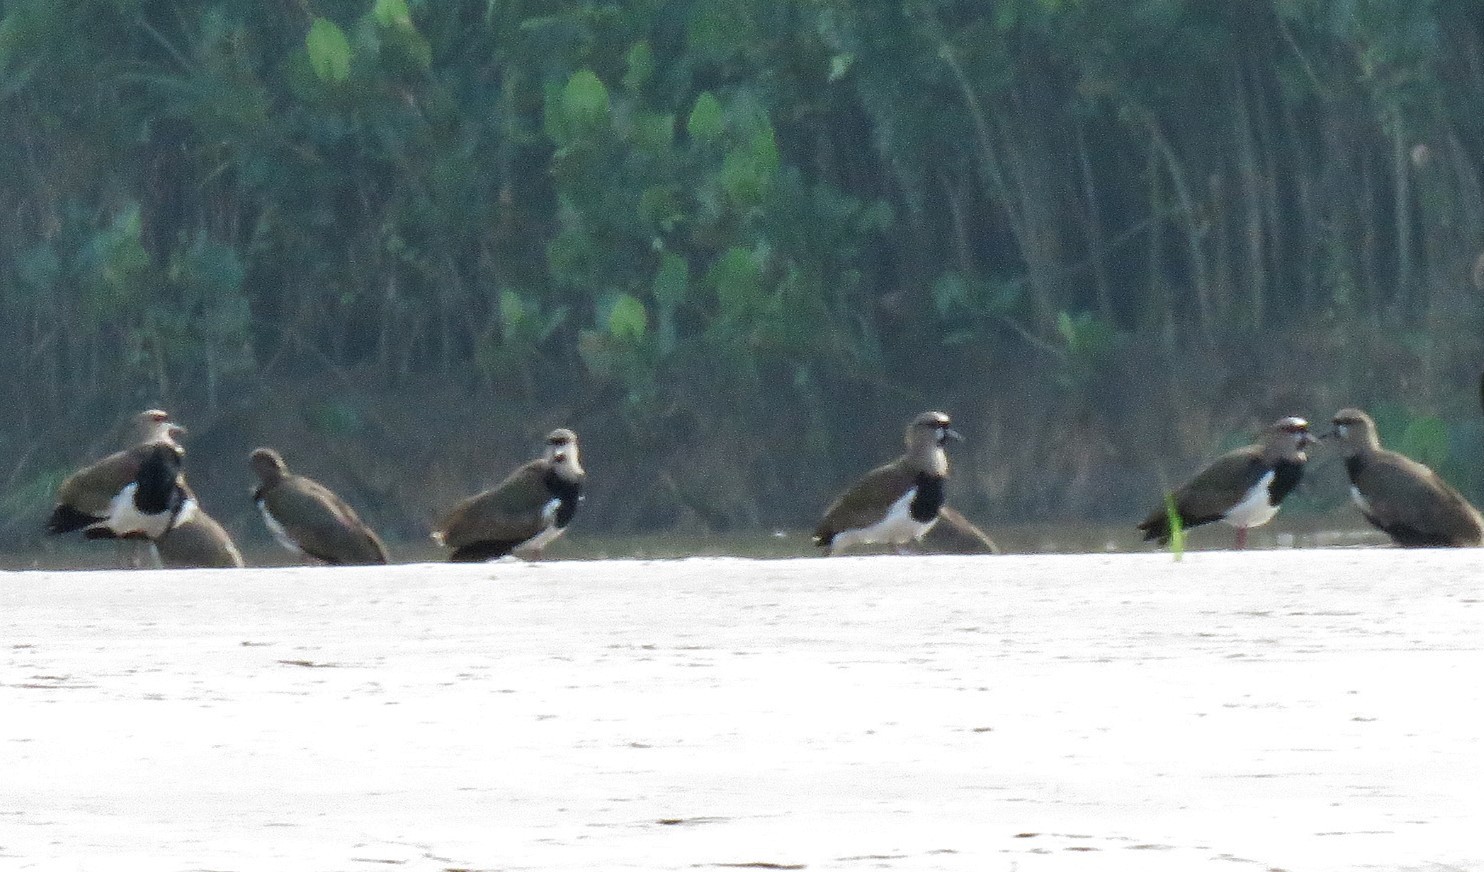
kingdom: Animalia
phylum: Chordata
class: Aves
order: Charadriiformes
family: Charadriidae
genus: Vanellus
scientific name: Vanellus chilensis
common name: Southern lapwing
